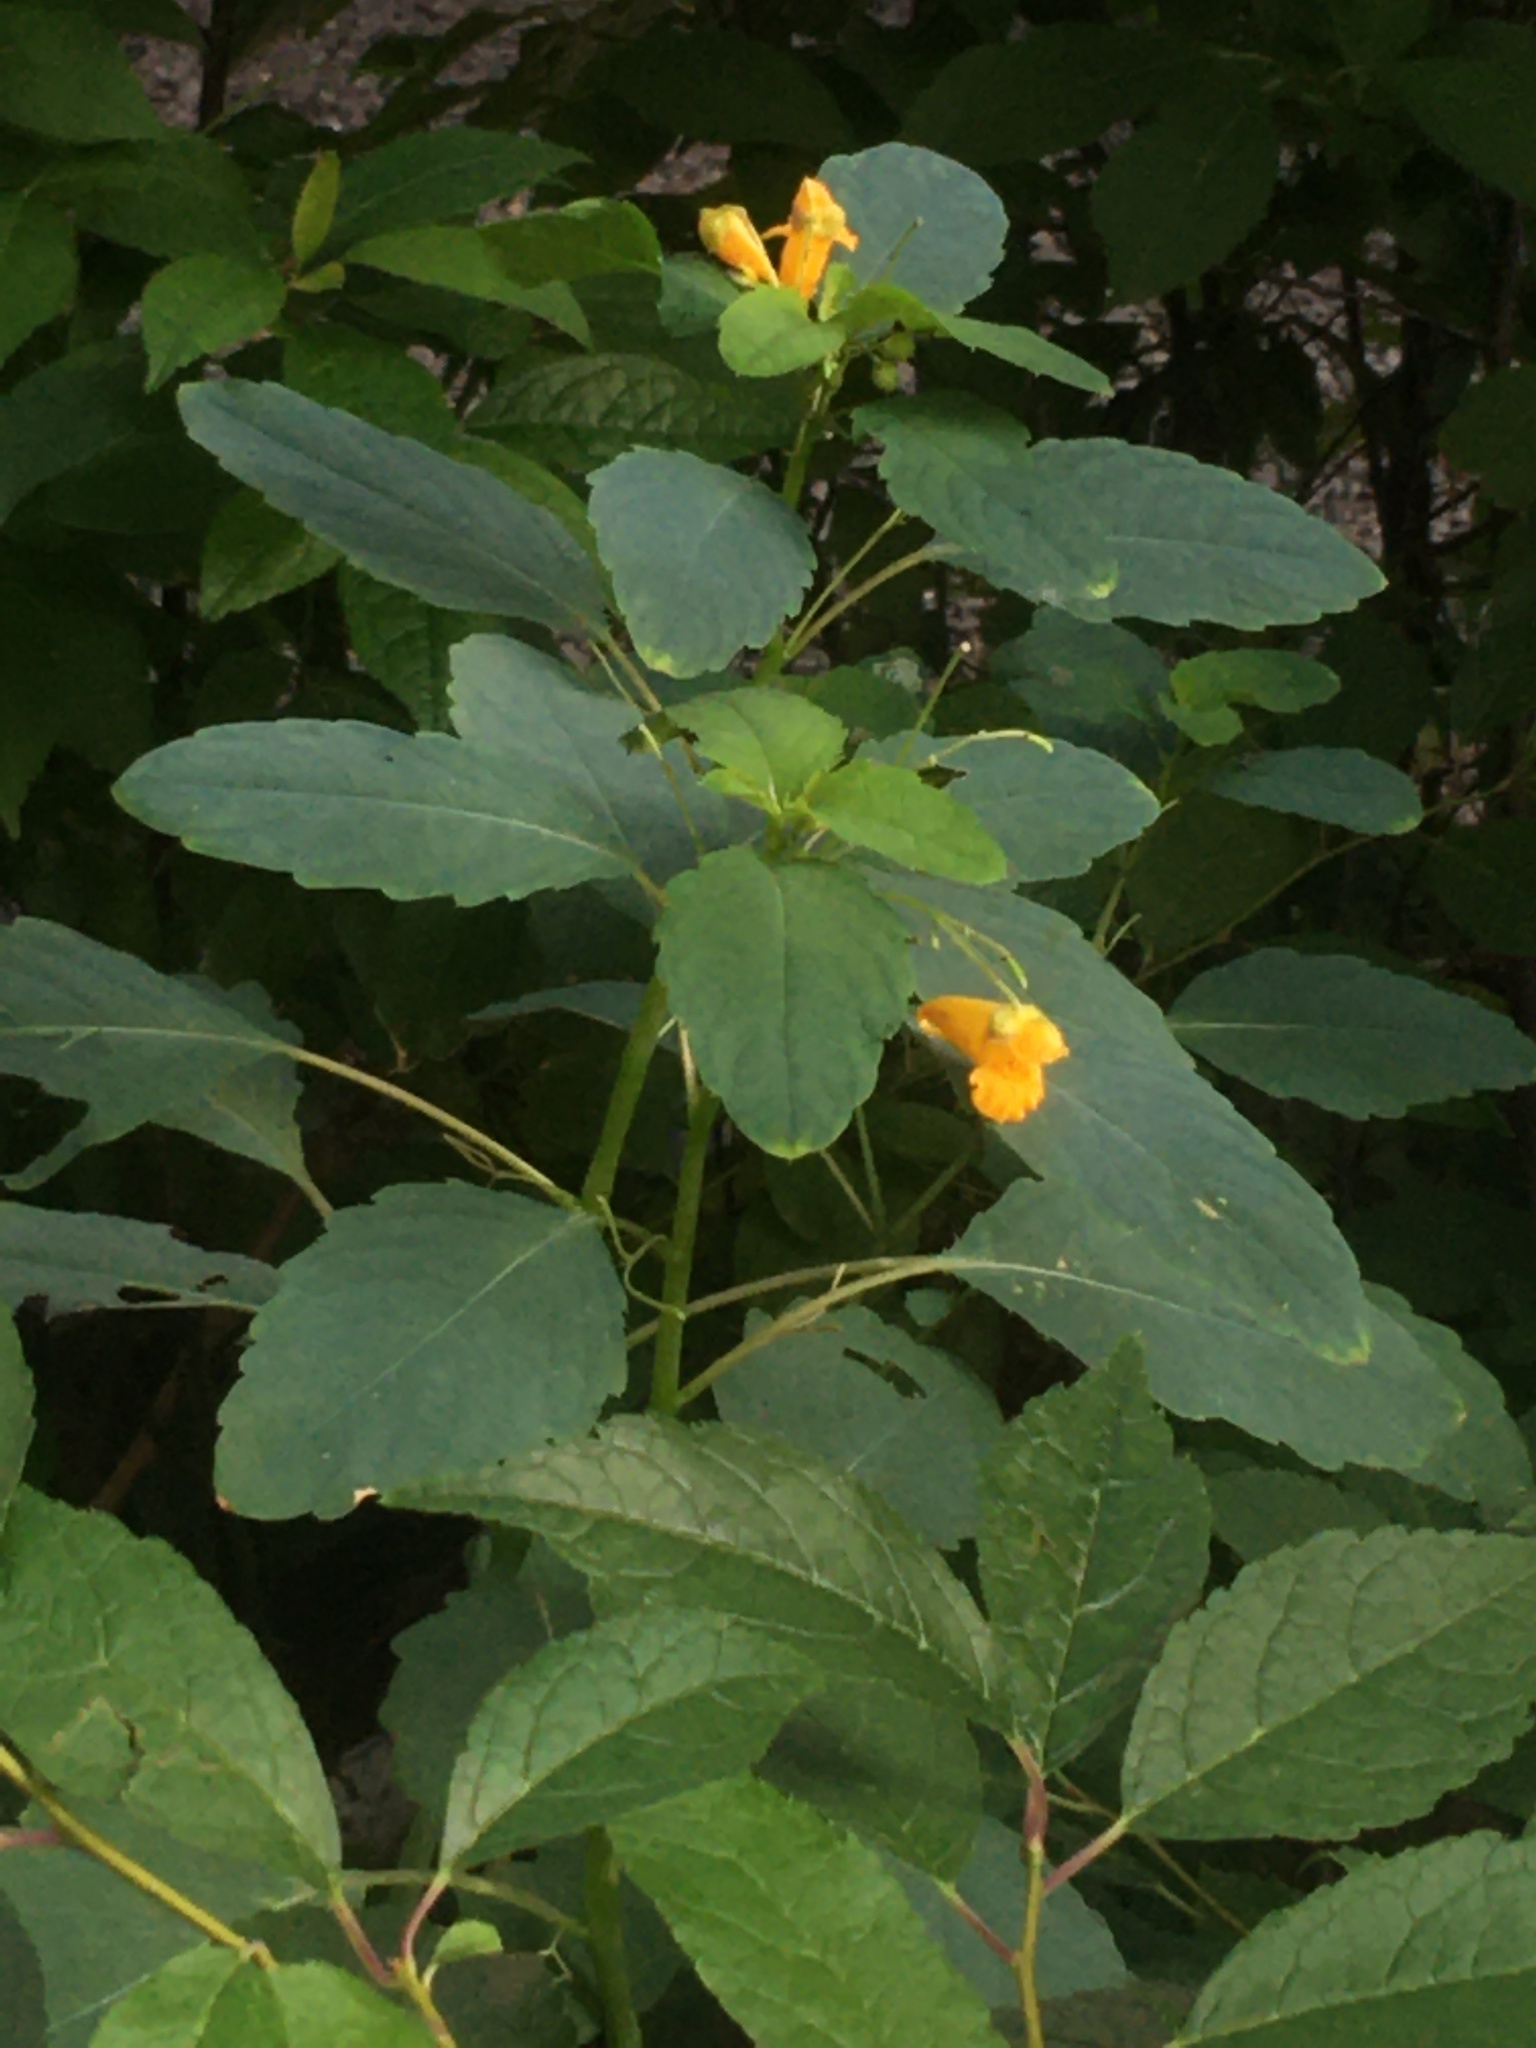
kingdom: Plantae
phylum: Tracheophyta
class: Magnoliopsida
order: Ericales
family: Balsaminaceae
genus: Impatiens
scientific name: Impatiens capensis
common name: Orange balsam
